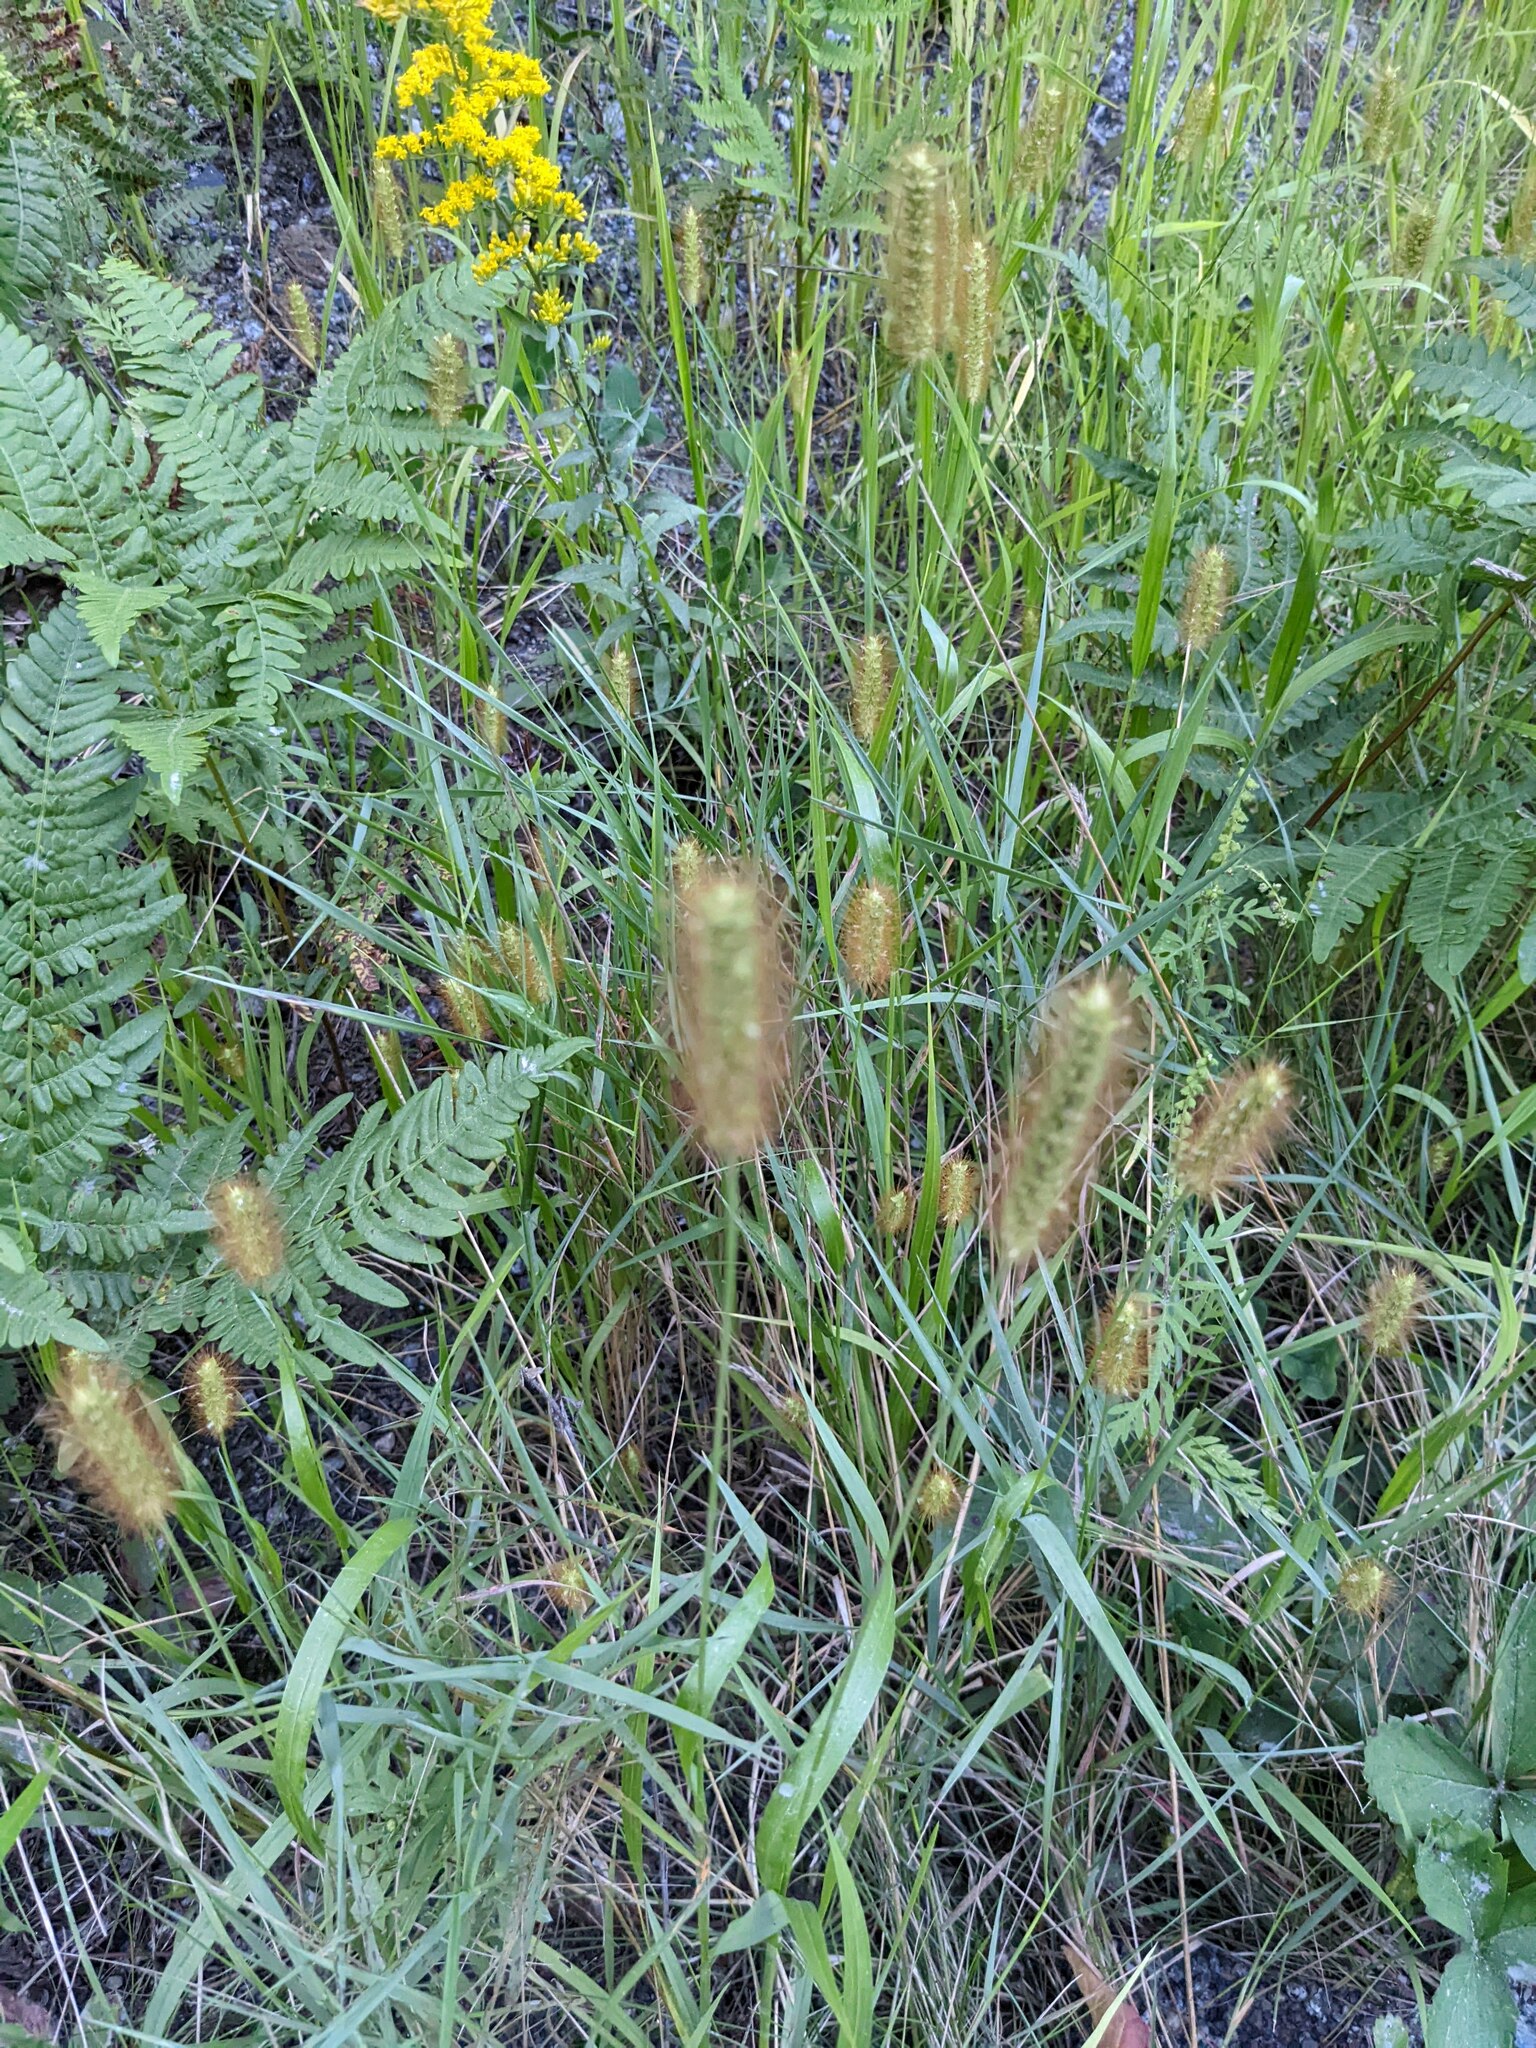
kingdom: Plantae
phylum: Tracheophyta
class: Liliopsida
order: Poales
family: Poaceae
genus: Setaria
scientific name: Setaria pumila
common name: Yellow bristle-grass
